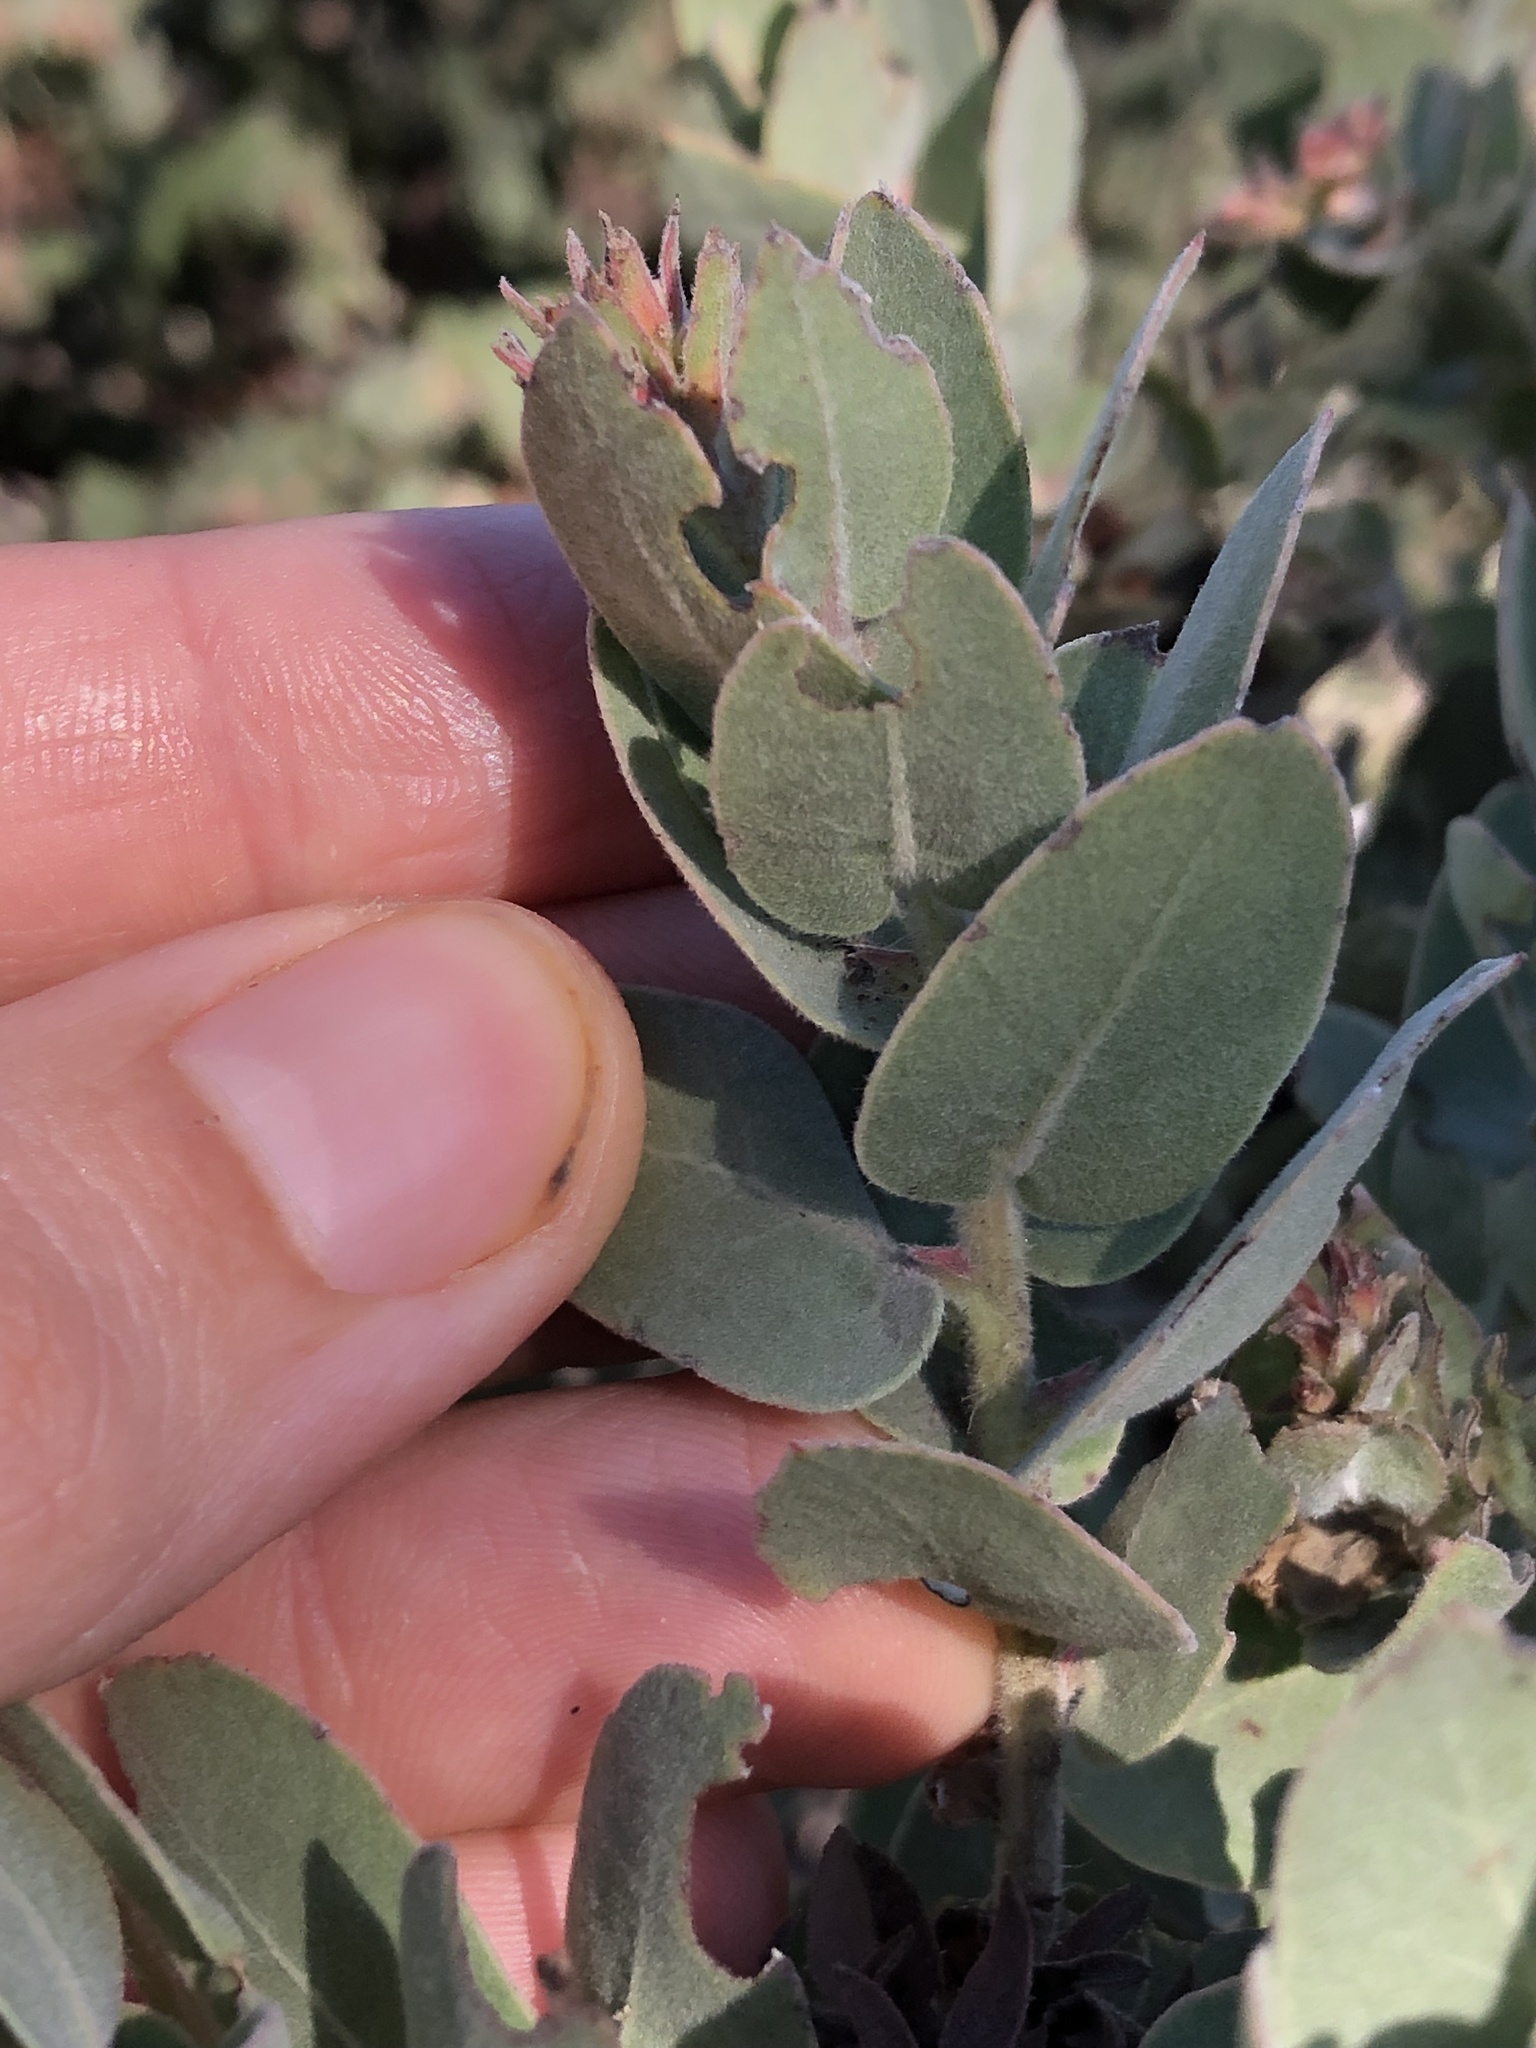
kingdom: Plantae
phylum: Tracheophyta
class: Magnoliopsida
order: Ericales
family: Ericaceae
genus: Arctostaphylos
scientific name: Arctostaphylos auriculata
